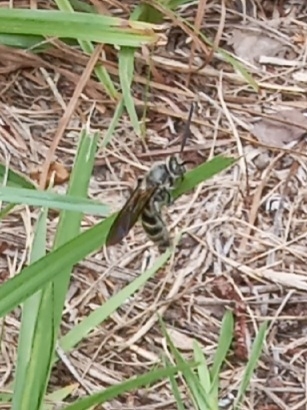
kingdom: Animalia
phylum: Arthropoda
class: Insecta
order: Hymenoptera
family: Scoliidae
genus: Dielis
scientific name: Dielis
